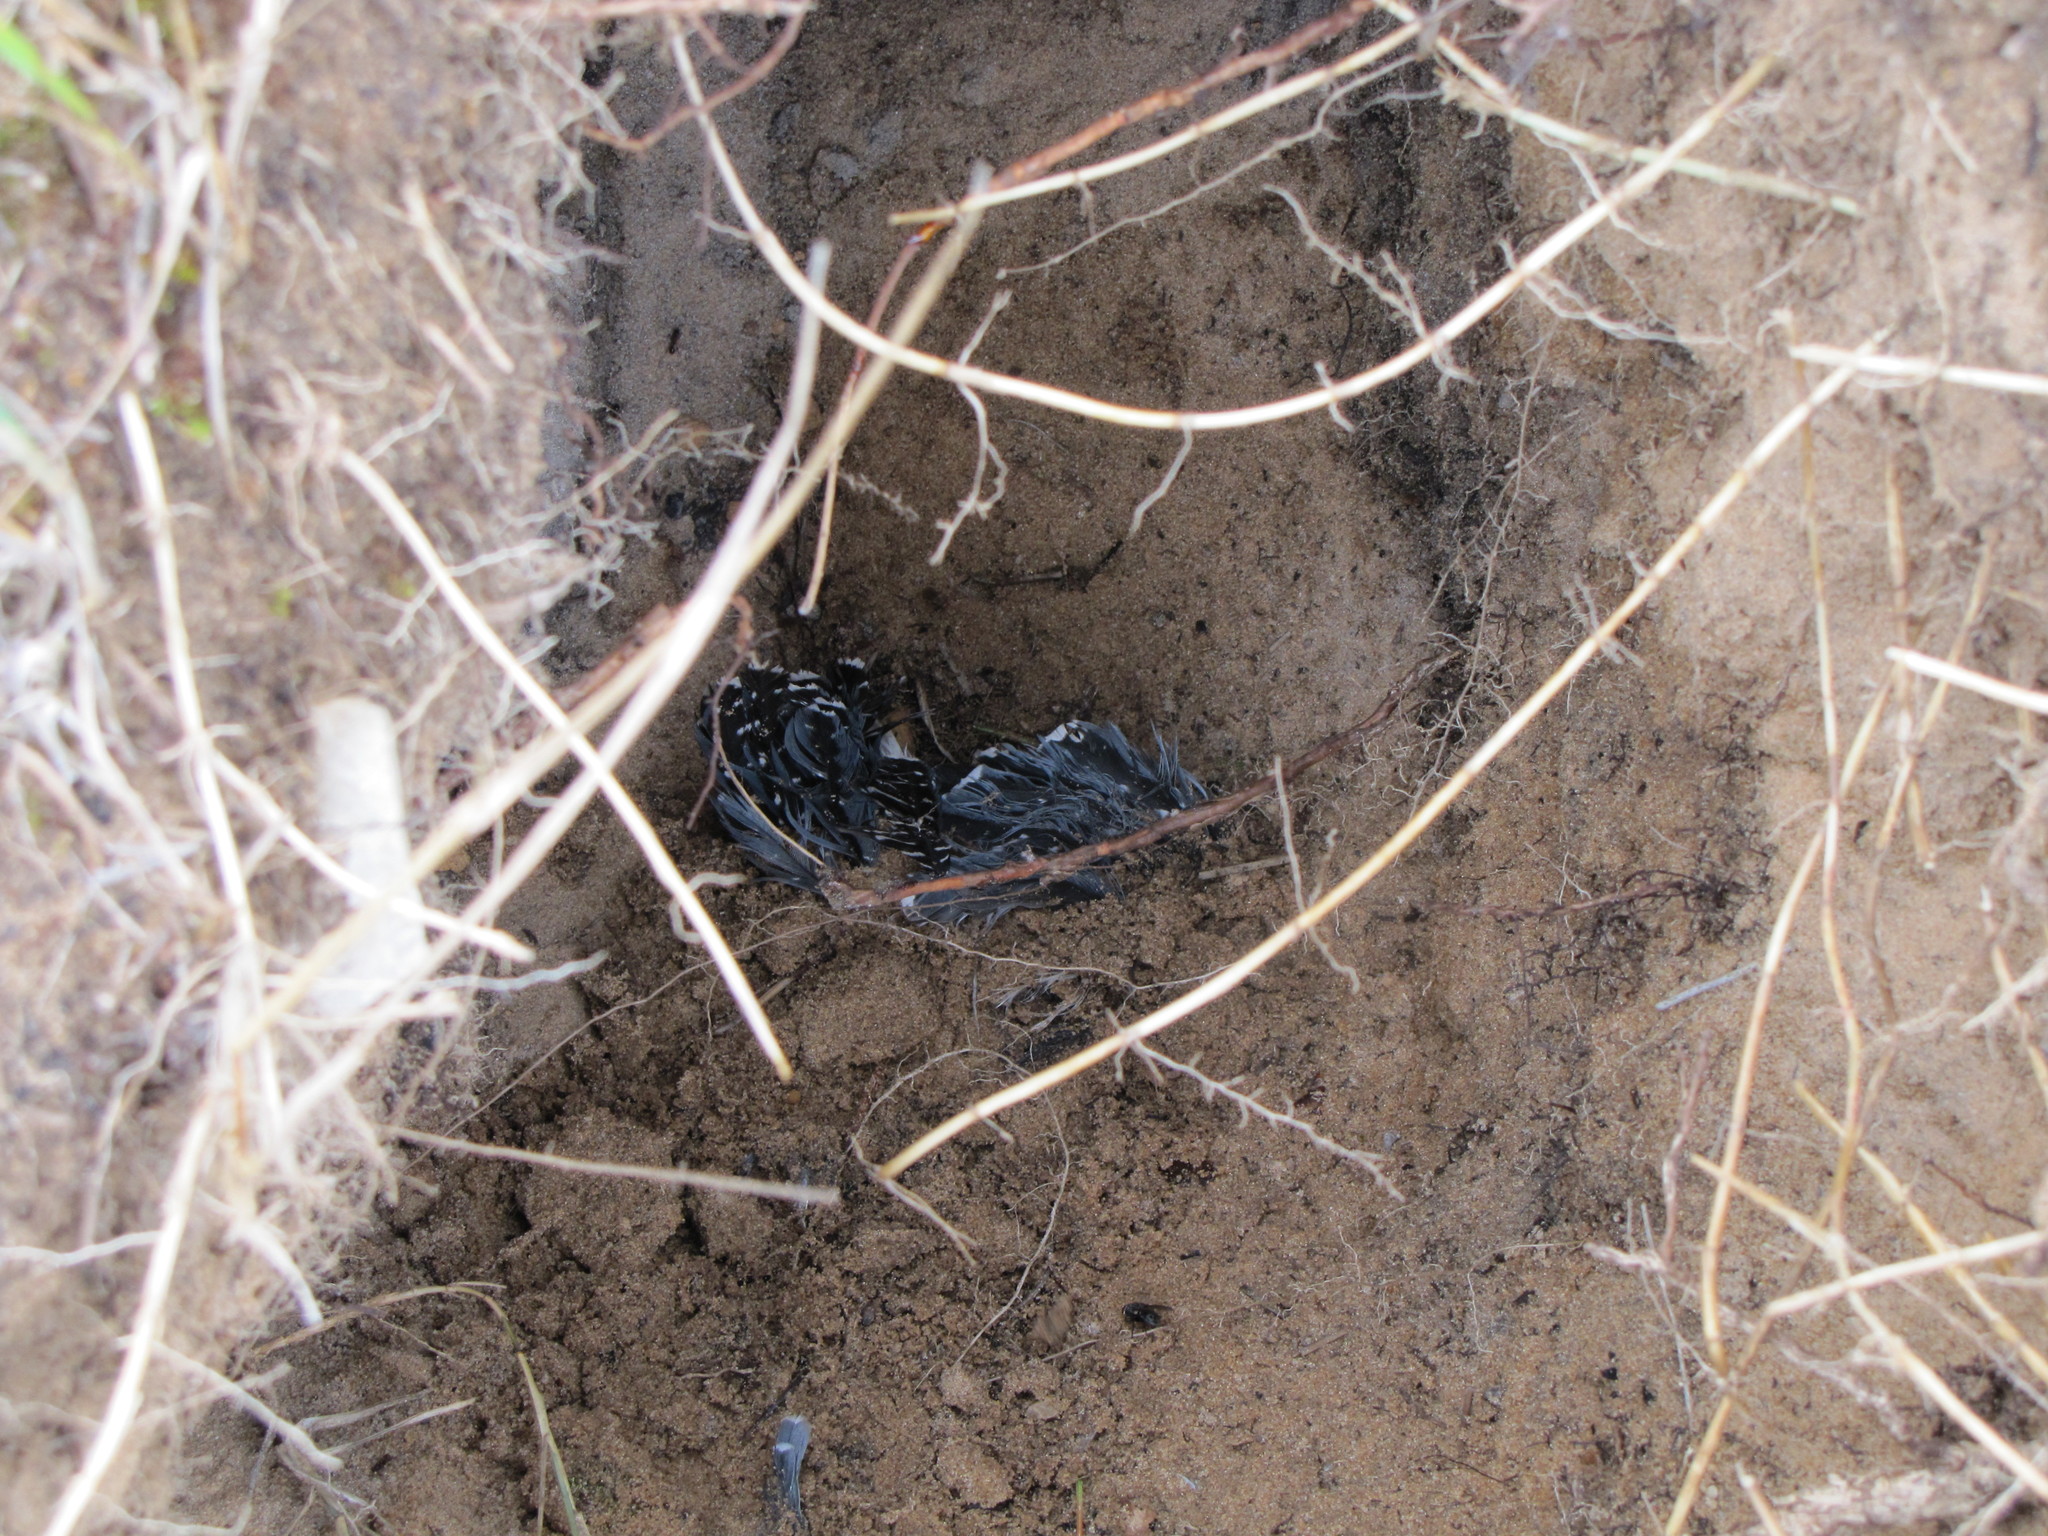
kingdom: Animalia
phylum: Chordata
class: Aves
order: Coraciiformes
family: Alcedinidae
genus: Megaceryle
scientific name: Megaceryle alcyon
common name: Belted kingfisher
